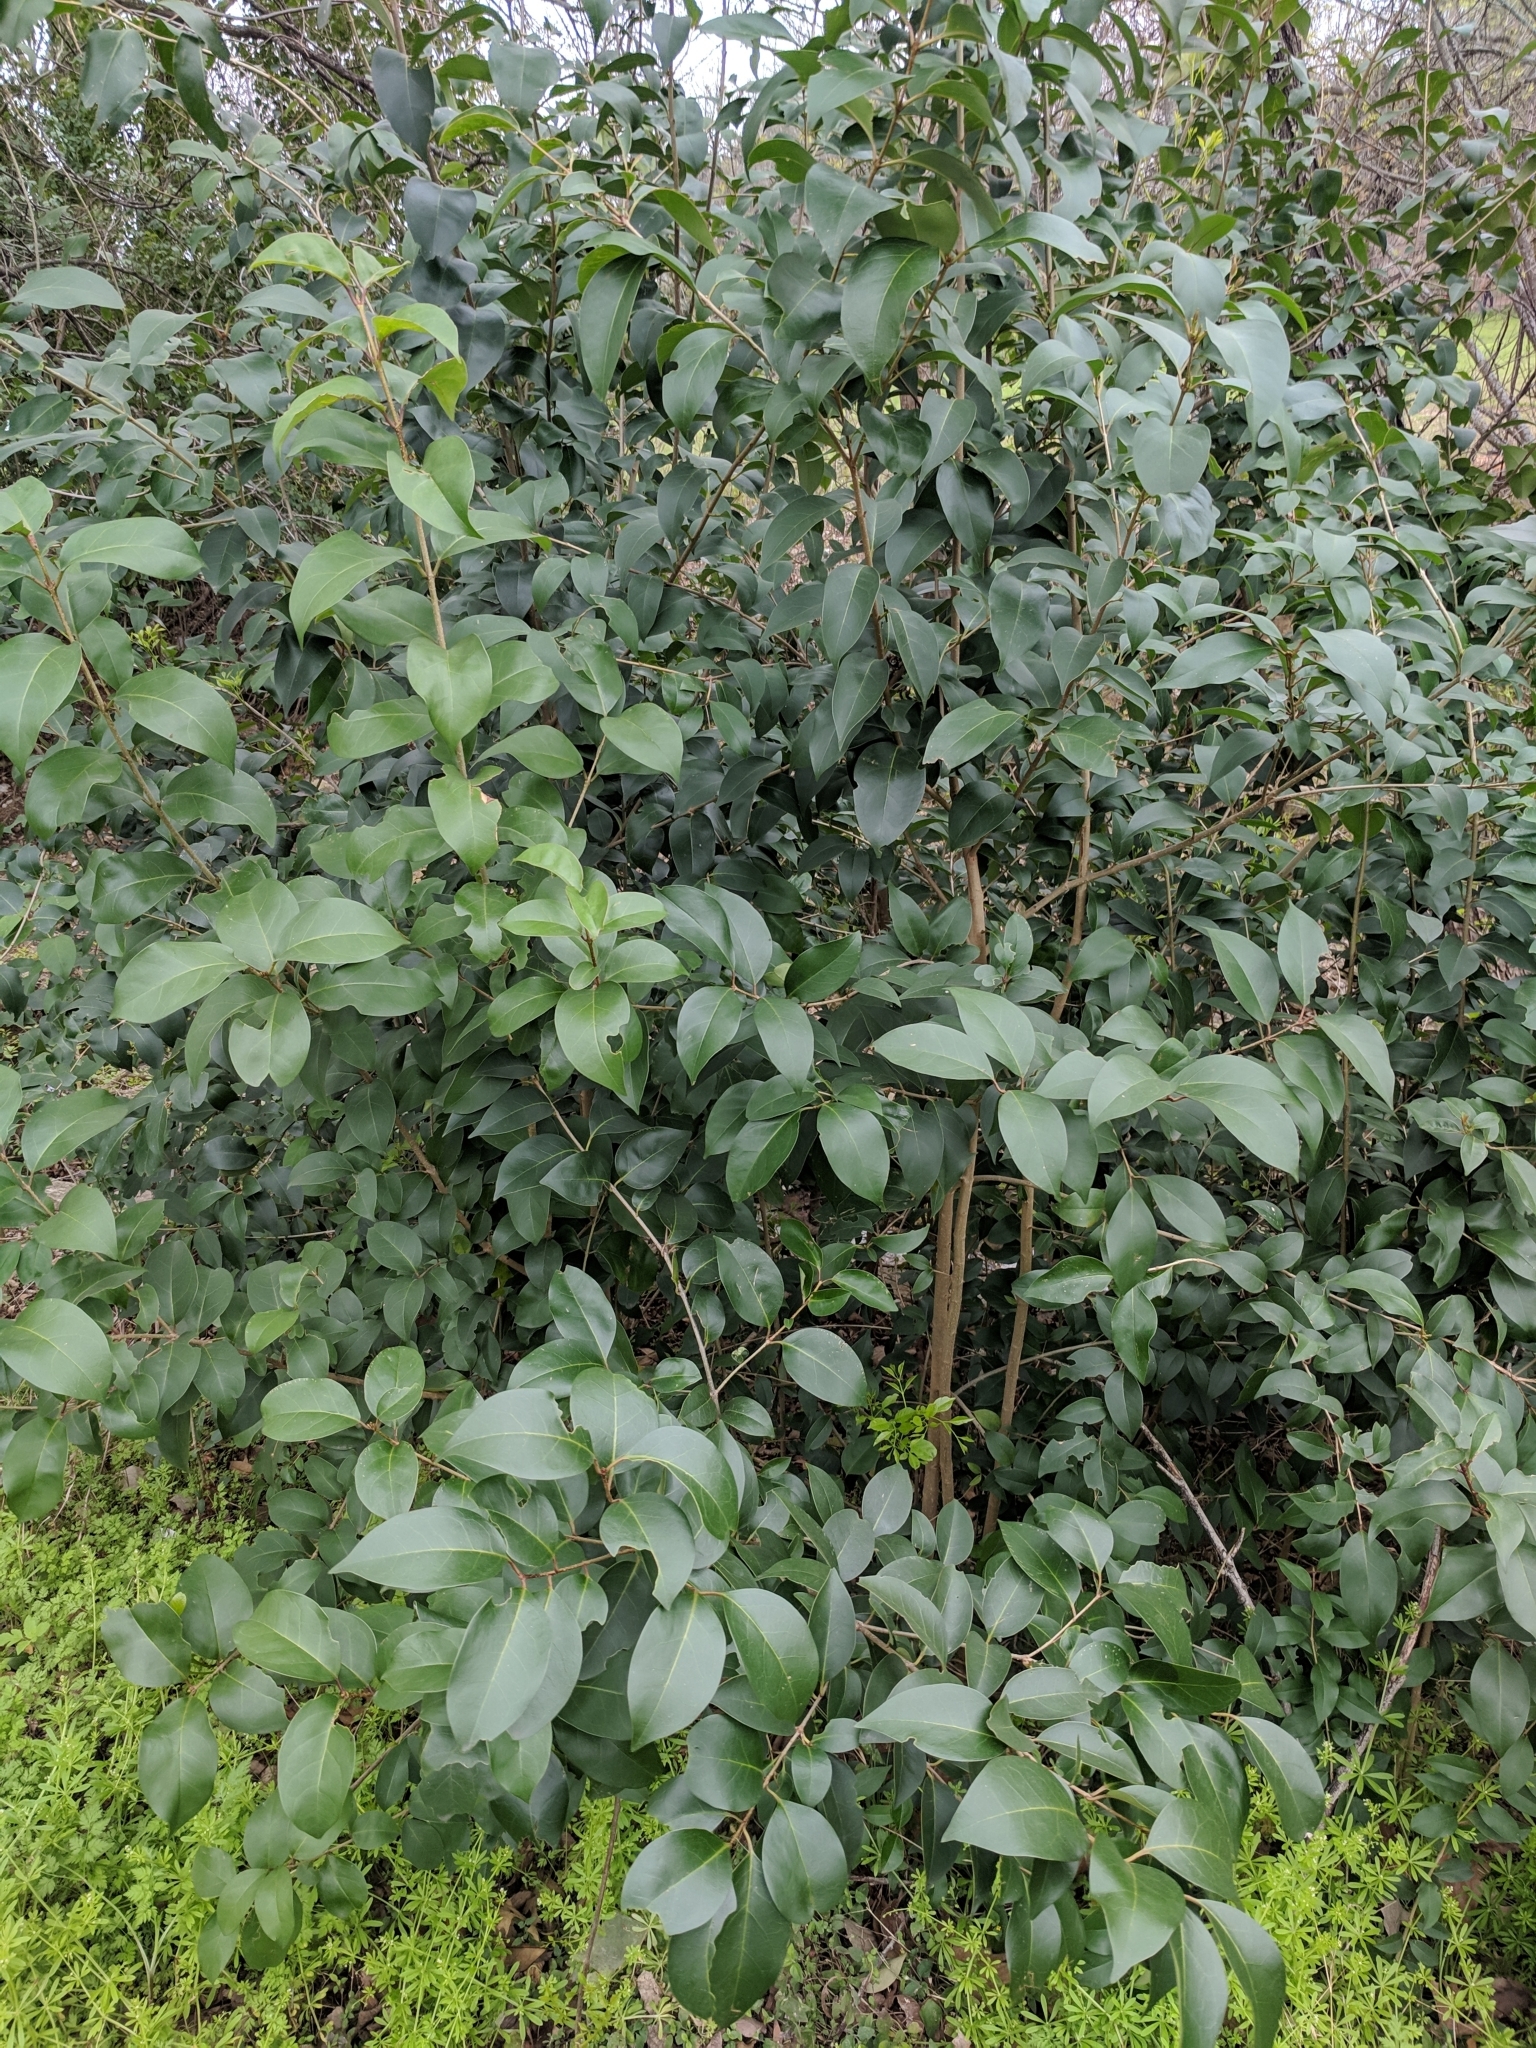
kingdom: Plantae
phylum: Tracheophyta
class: Magnoliopsida
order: Lamiales
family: Oleaceae
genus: Ligustrum
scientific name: Ligustrum lucidum
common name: Glossy privet
